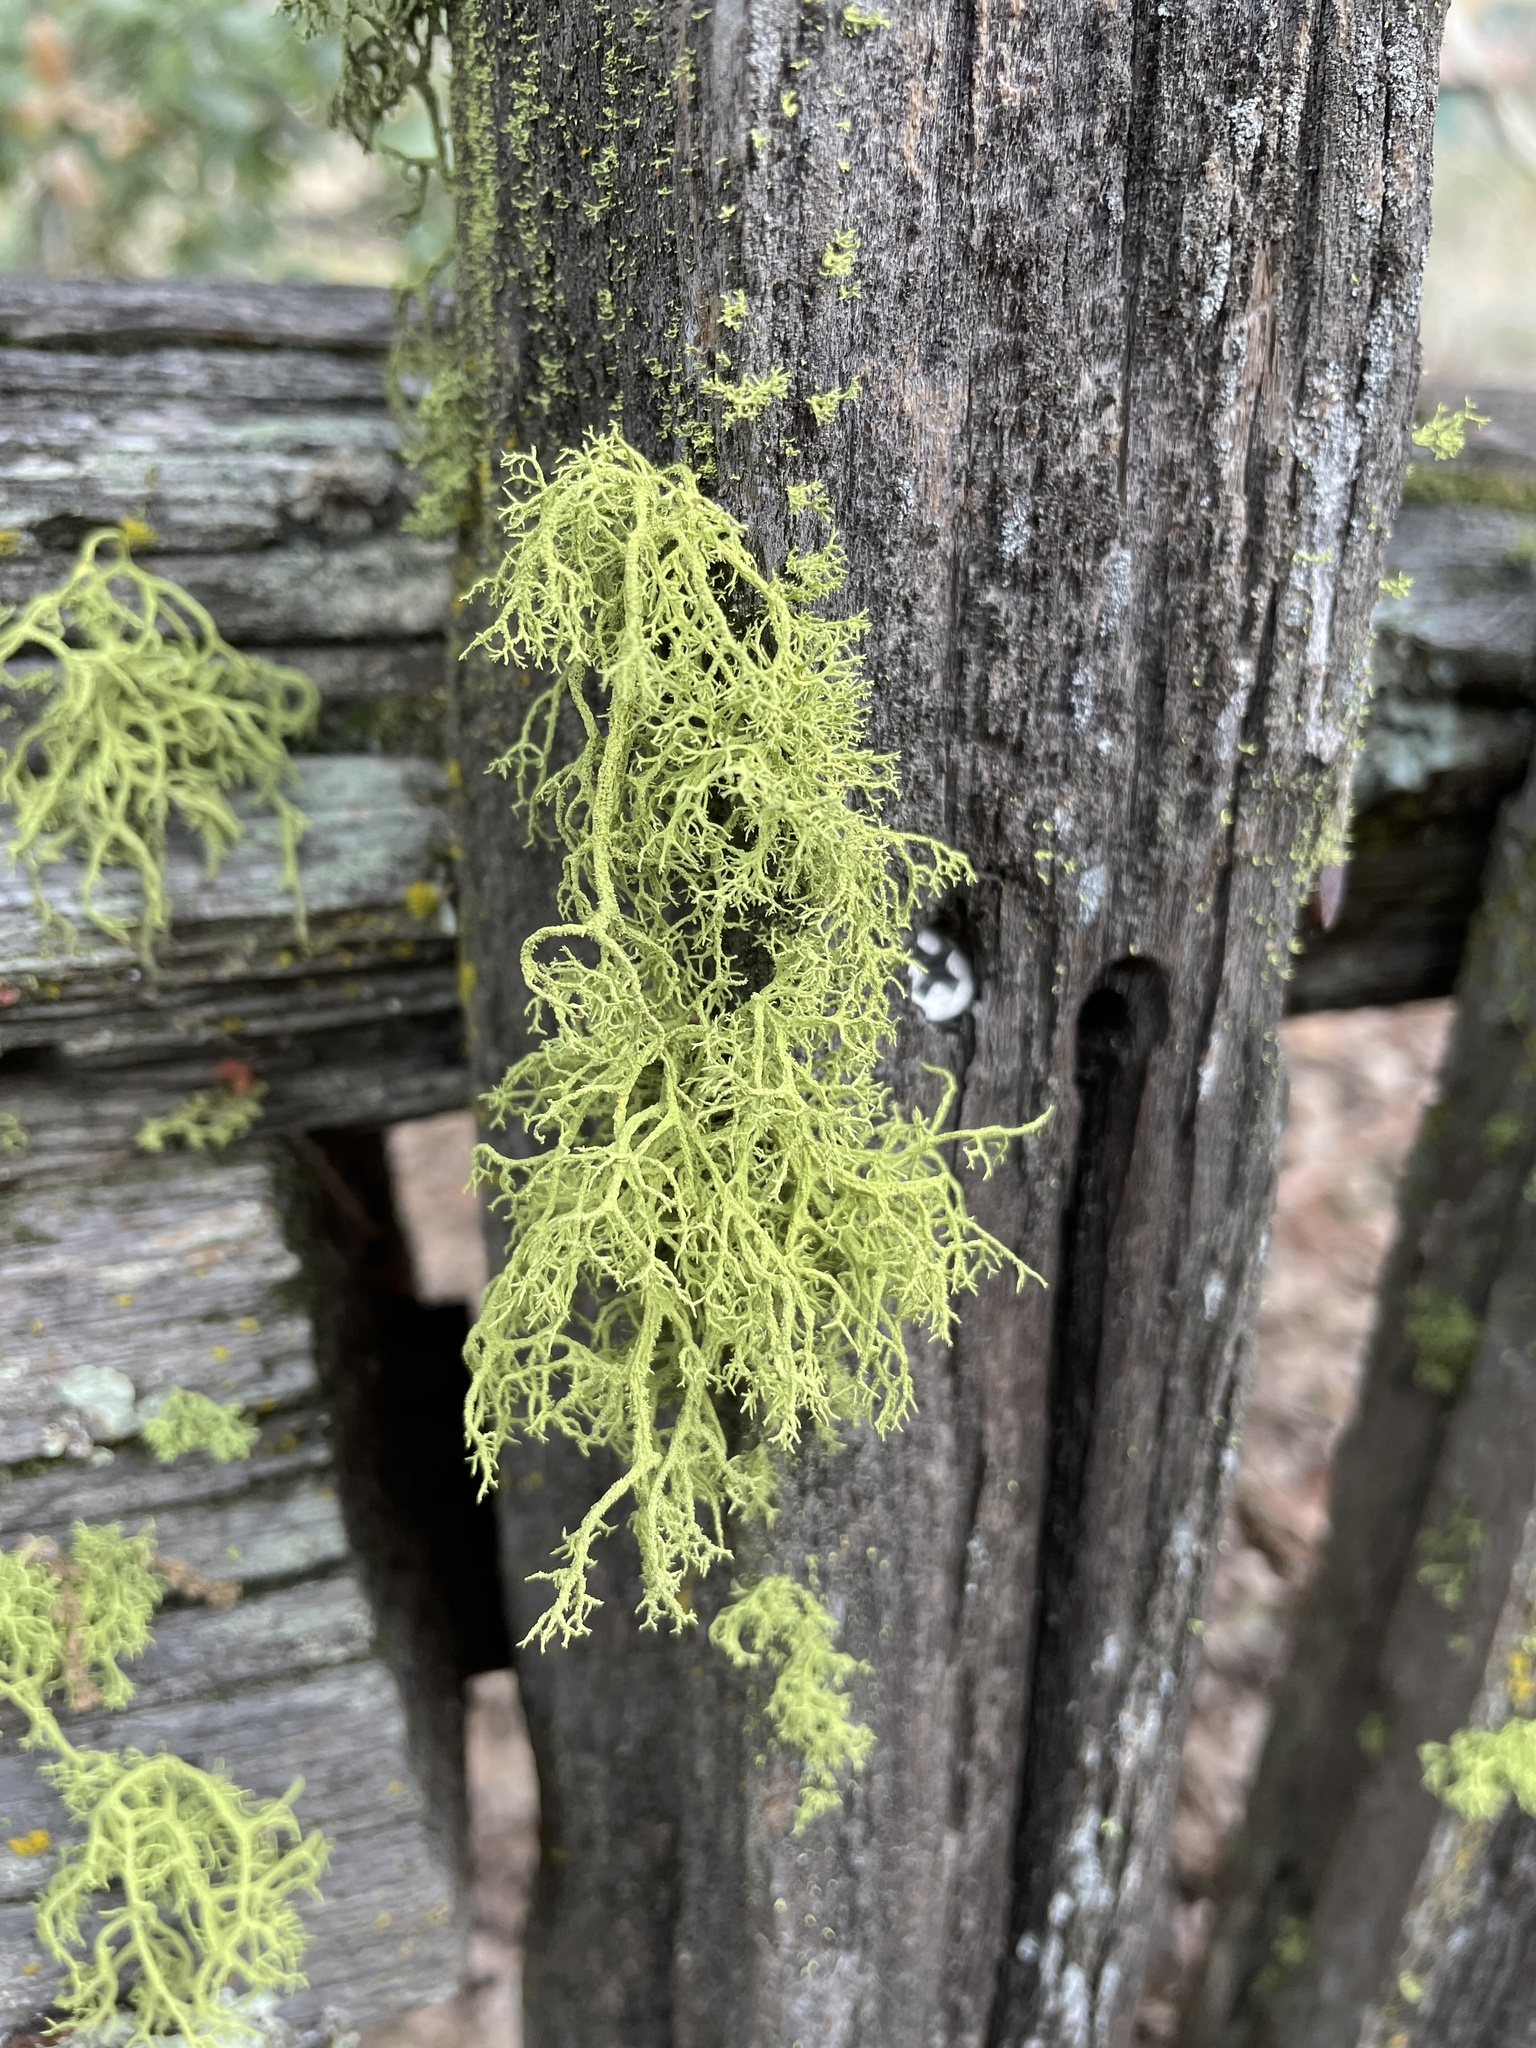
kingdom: Fungi
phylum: Ascomycota
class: Lecanoromycetes
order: Lecanorales
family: Parmeliaceae
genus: Letharia
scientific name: Letharia vulpina
